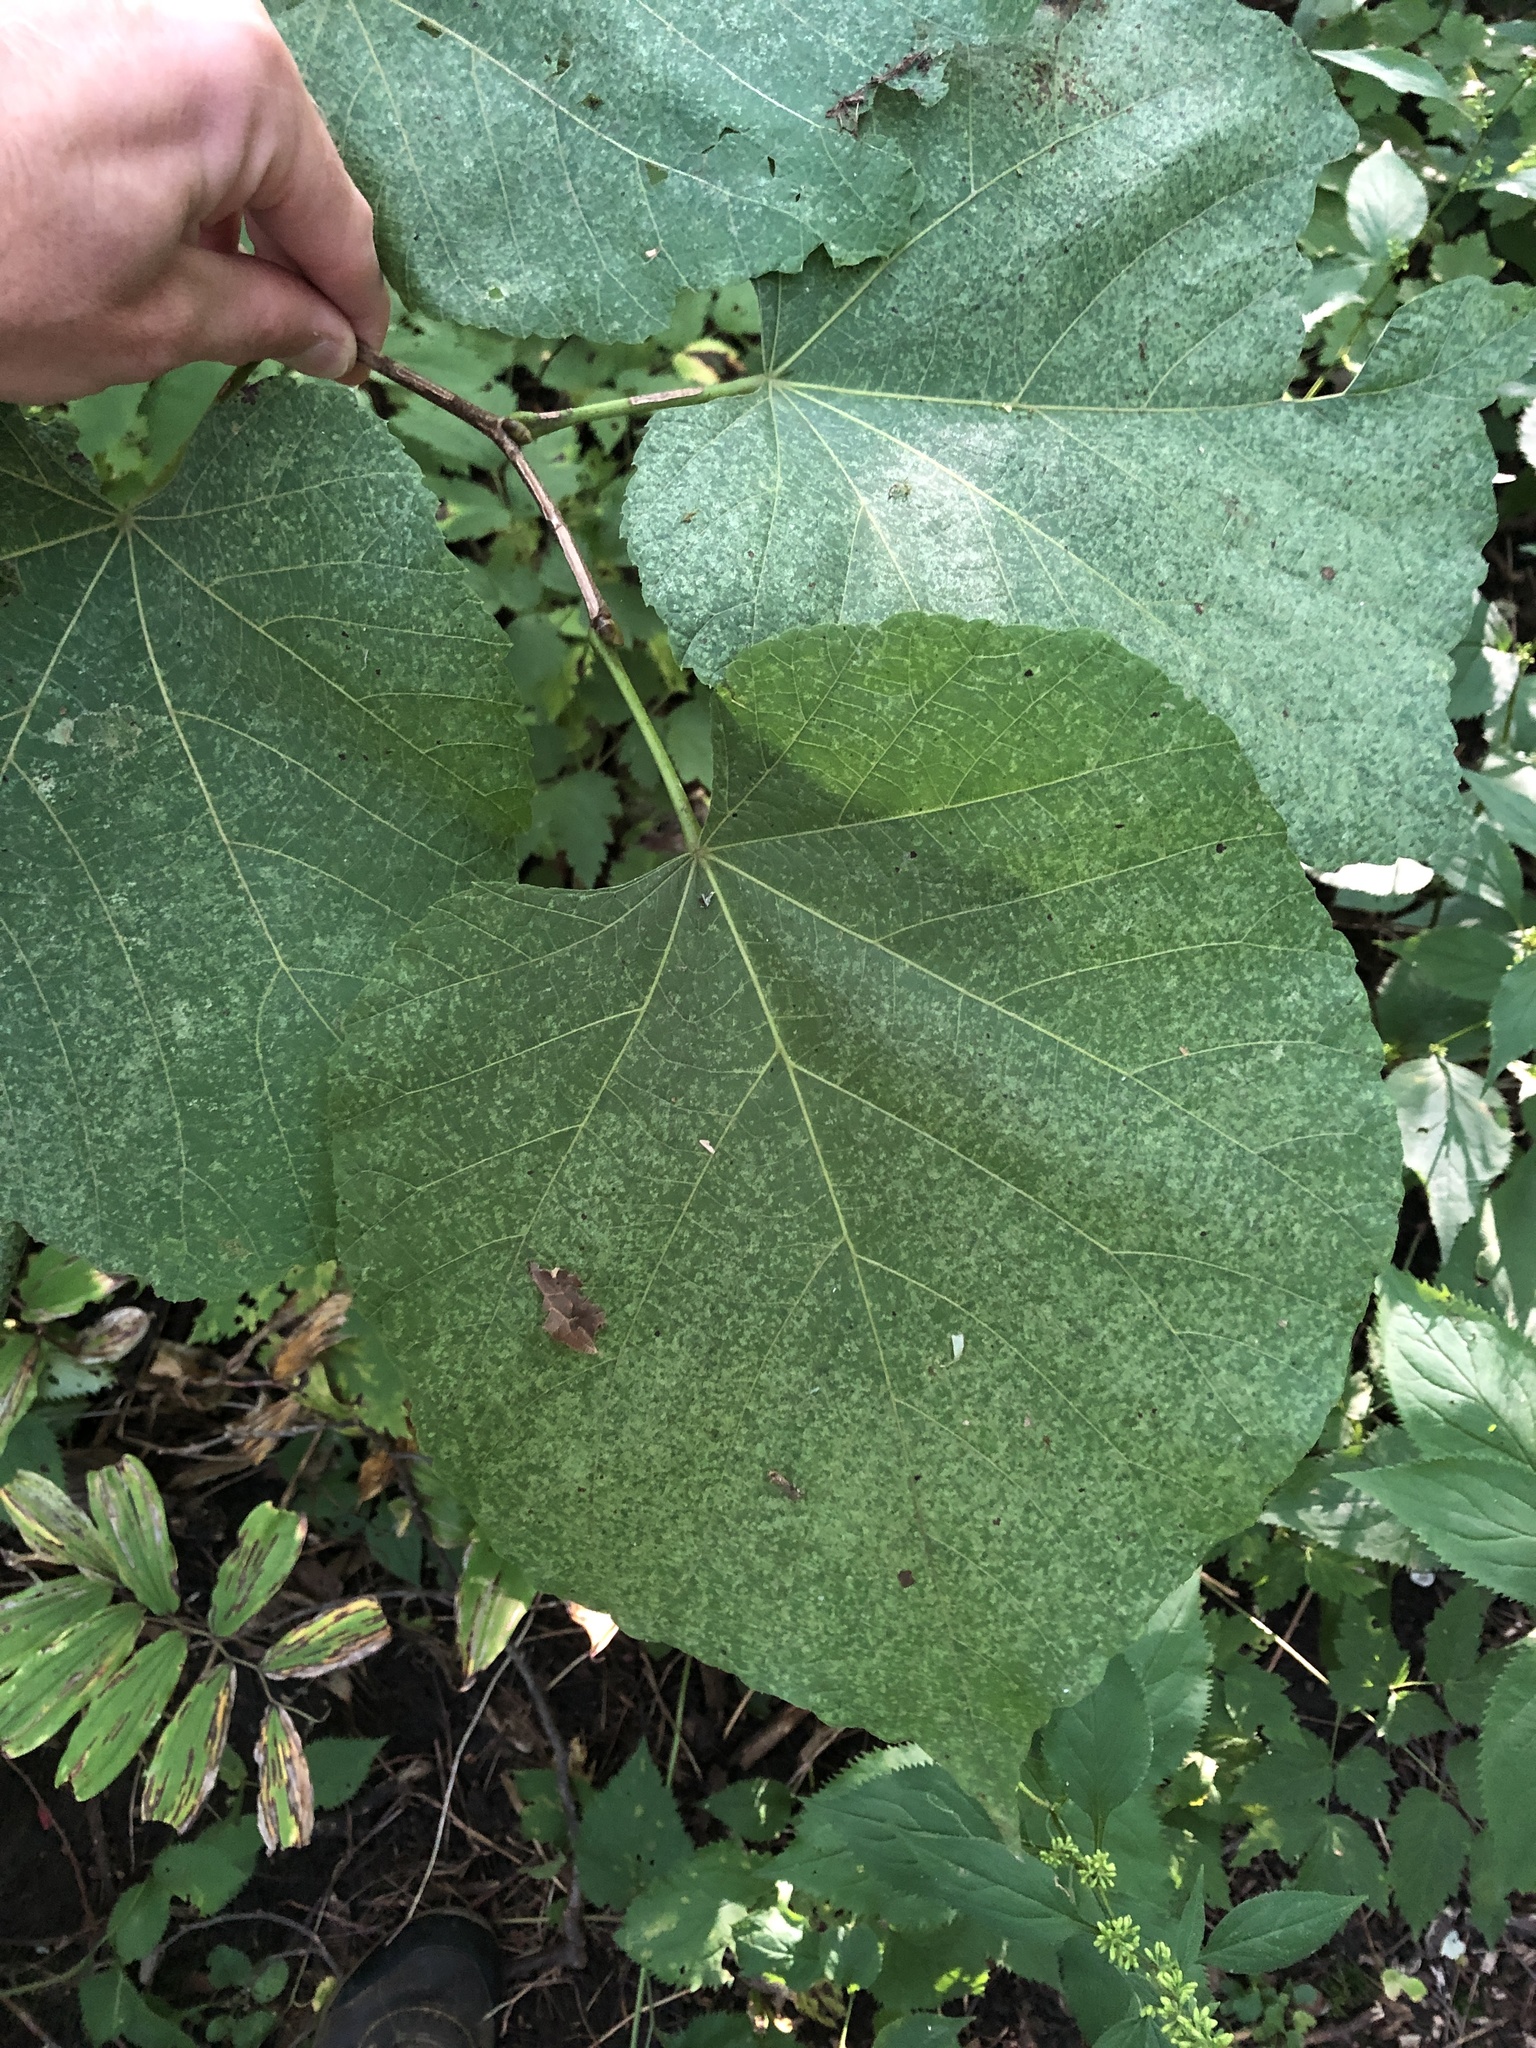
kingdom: Plantae
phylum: Tracheophyta
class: Magnoliopsida
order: Malvales
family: Malvaceae
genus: Tilia
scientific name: Tilia americana
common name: Basswood
